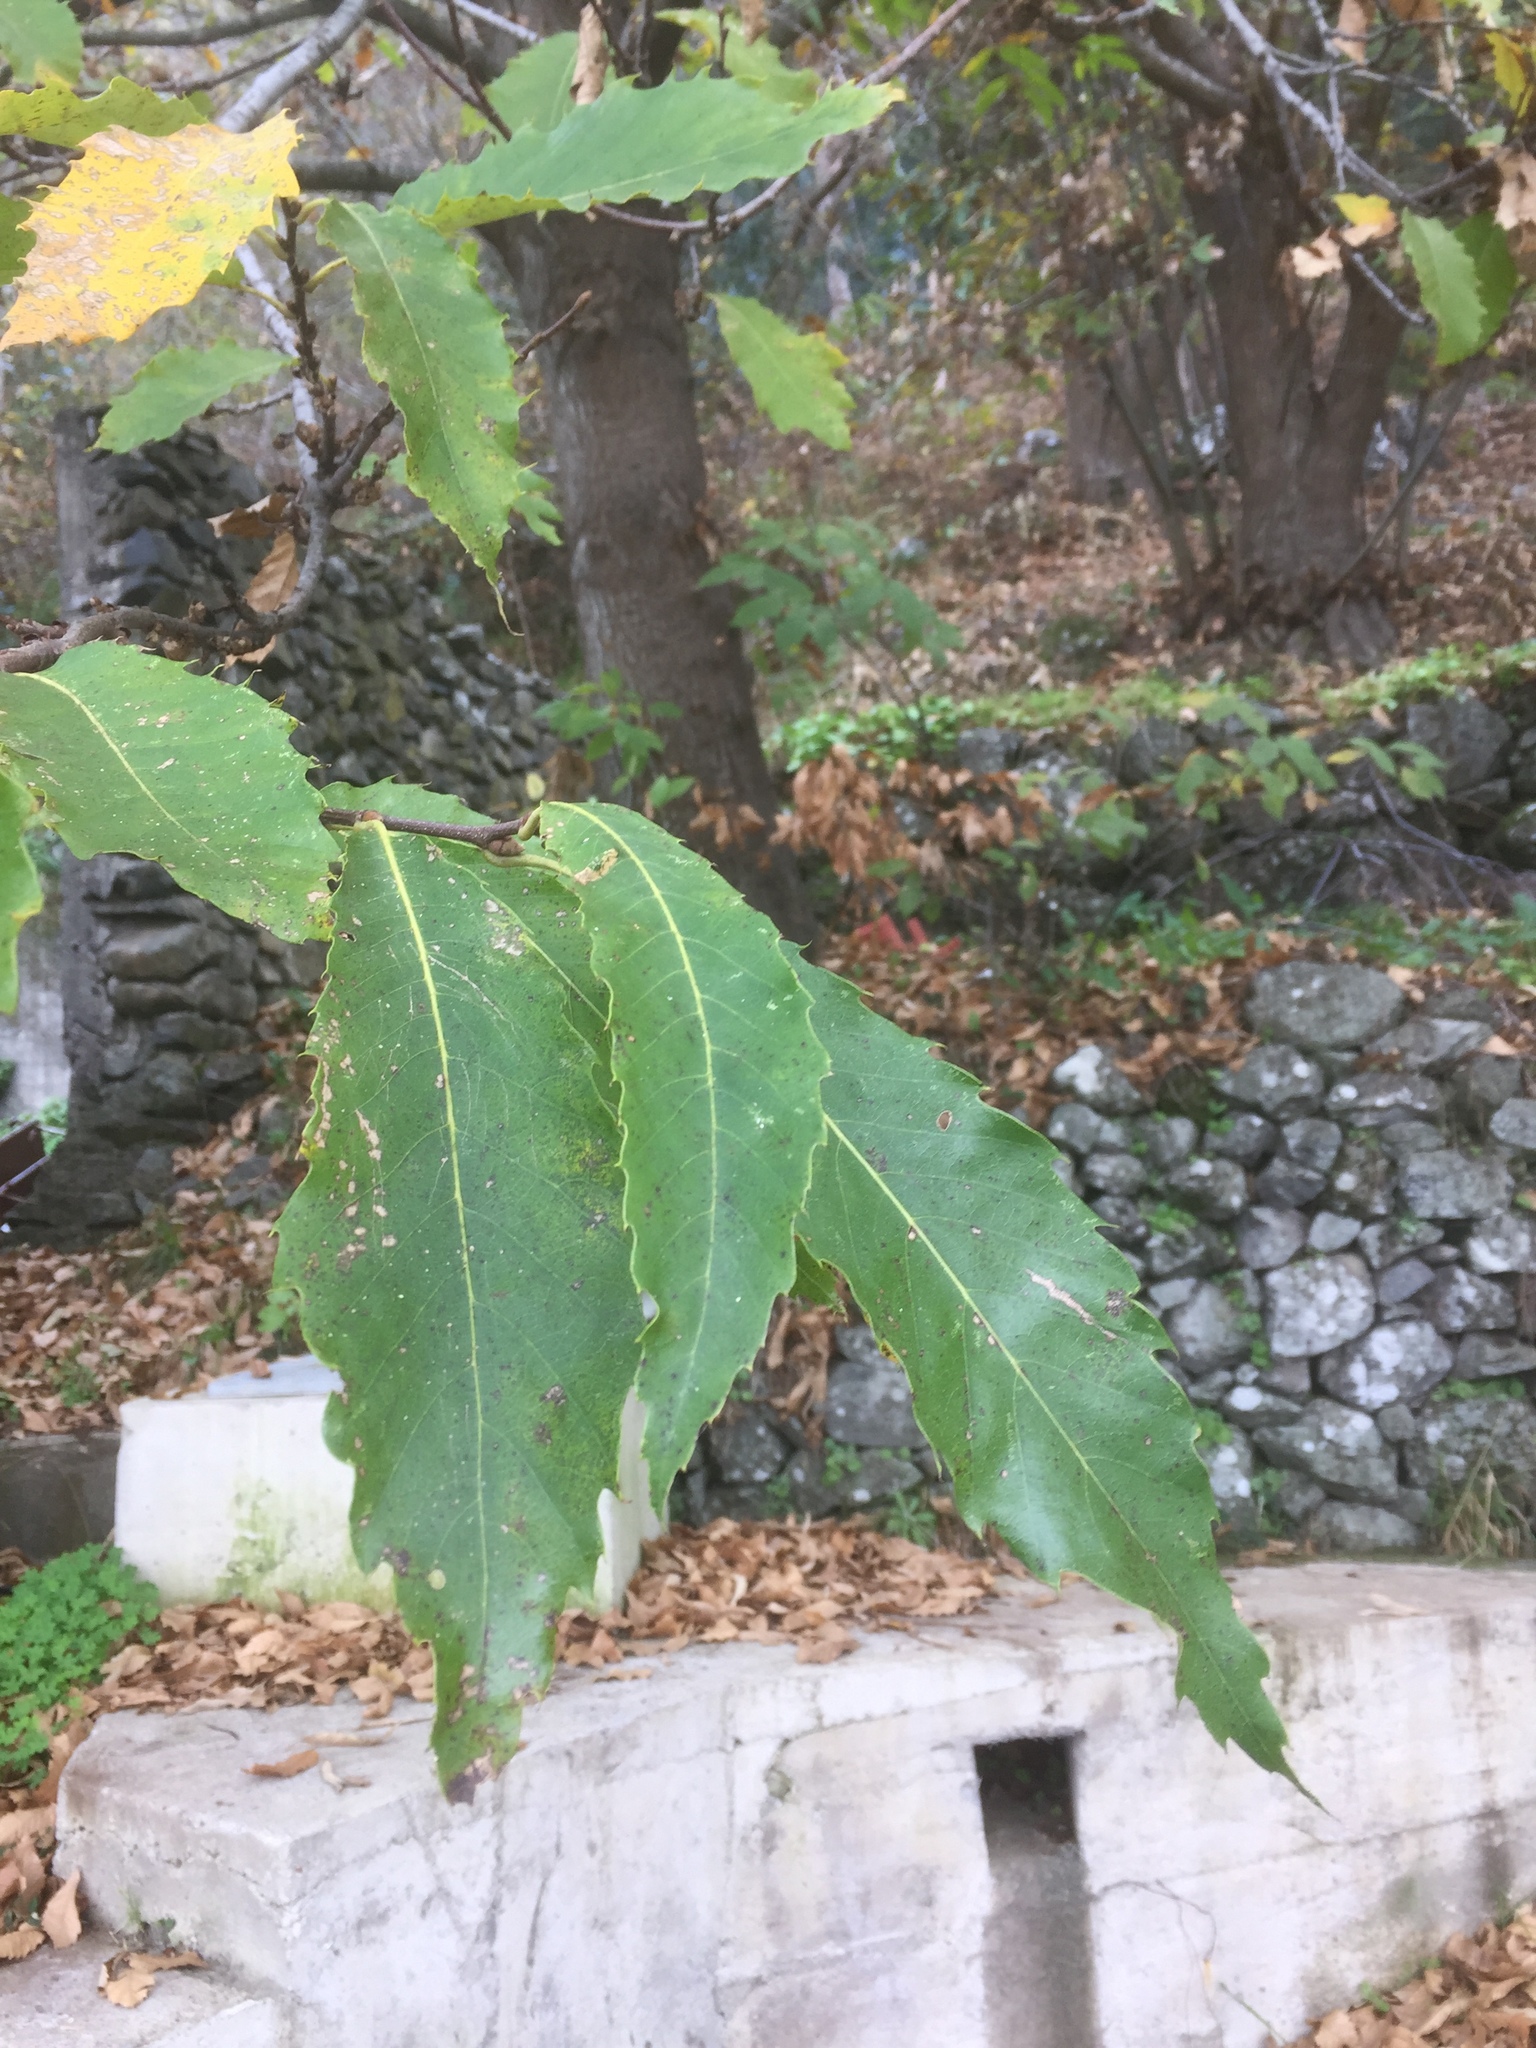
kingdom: Plantae
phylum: Tracheophyta
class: Magnoliopsida
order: Fagales
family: Fagaceae
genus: Castanea
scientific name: Castanea sativa
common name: Sweet chestnut
